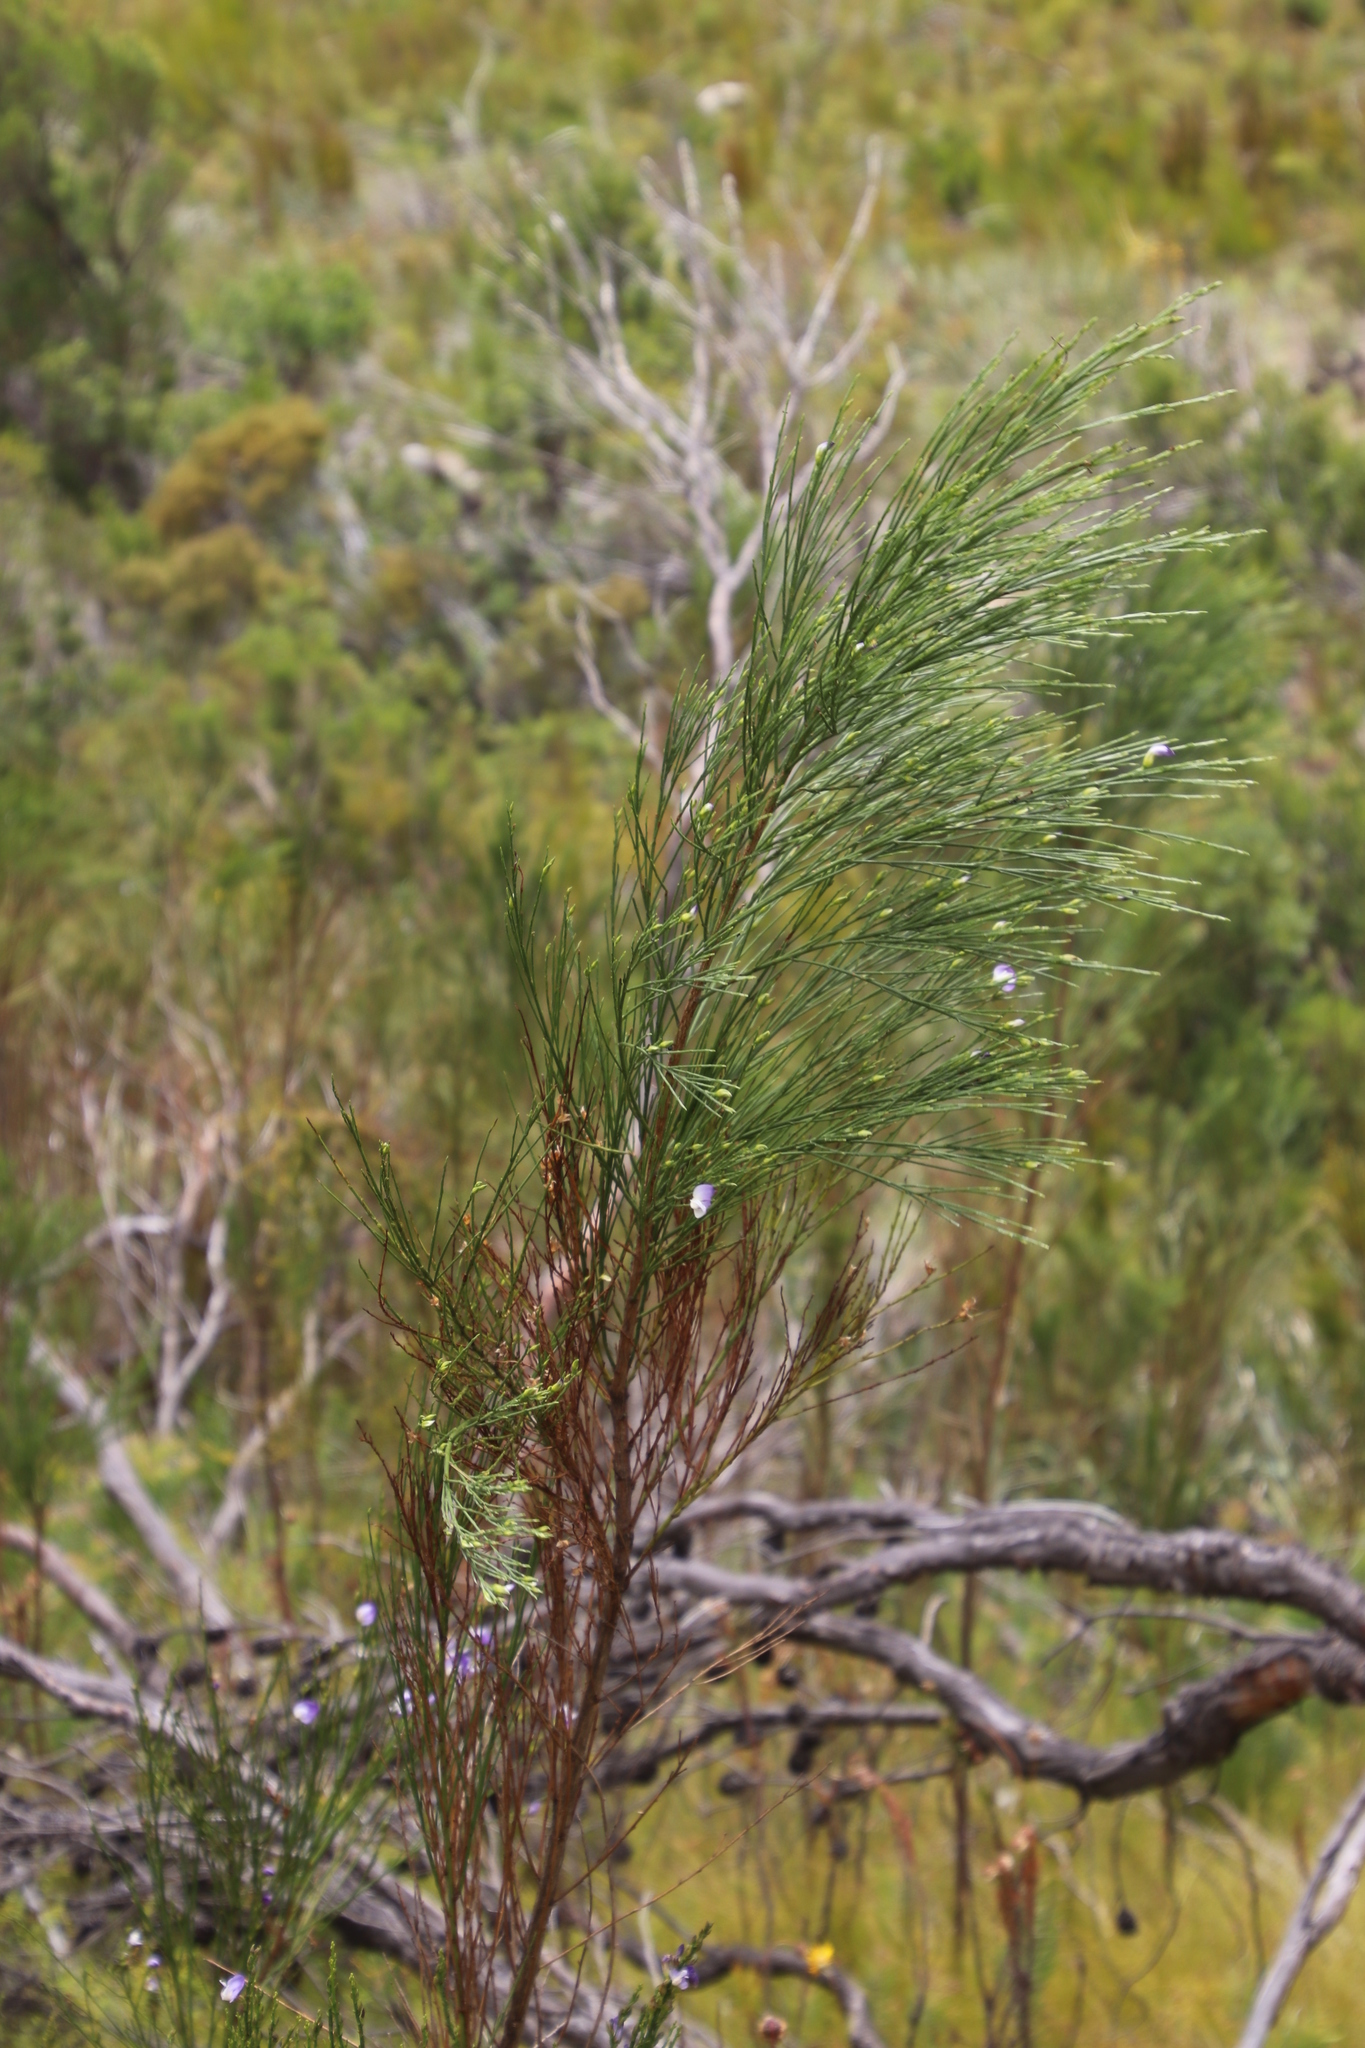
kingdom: Plantae
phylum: Tracheophyta
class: Magnoliopsida
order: Fabales
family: Fabaceae
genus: Psoralea
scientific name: Psoralea usitata
